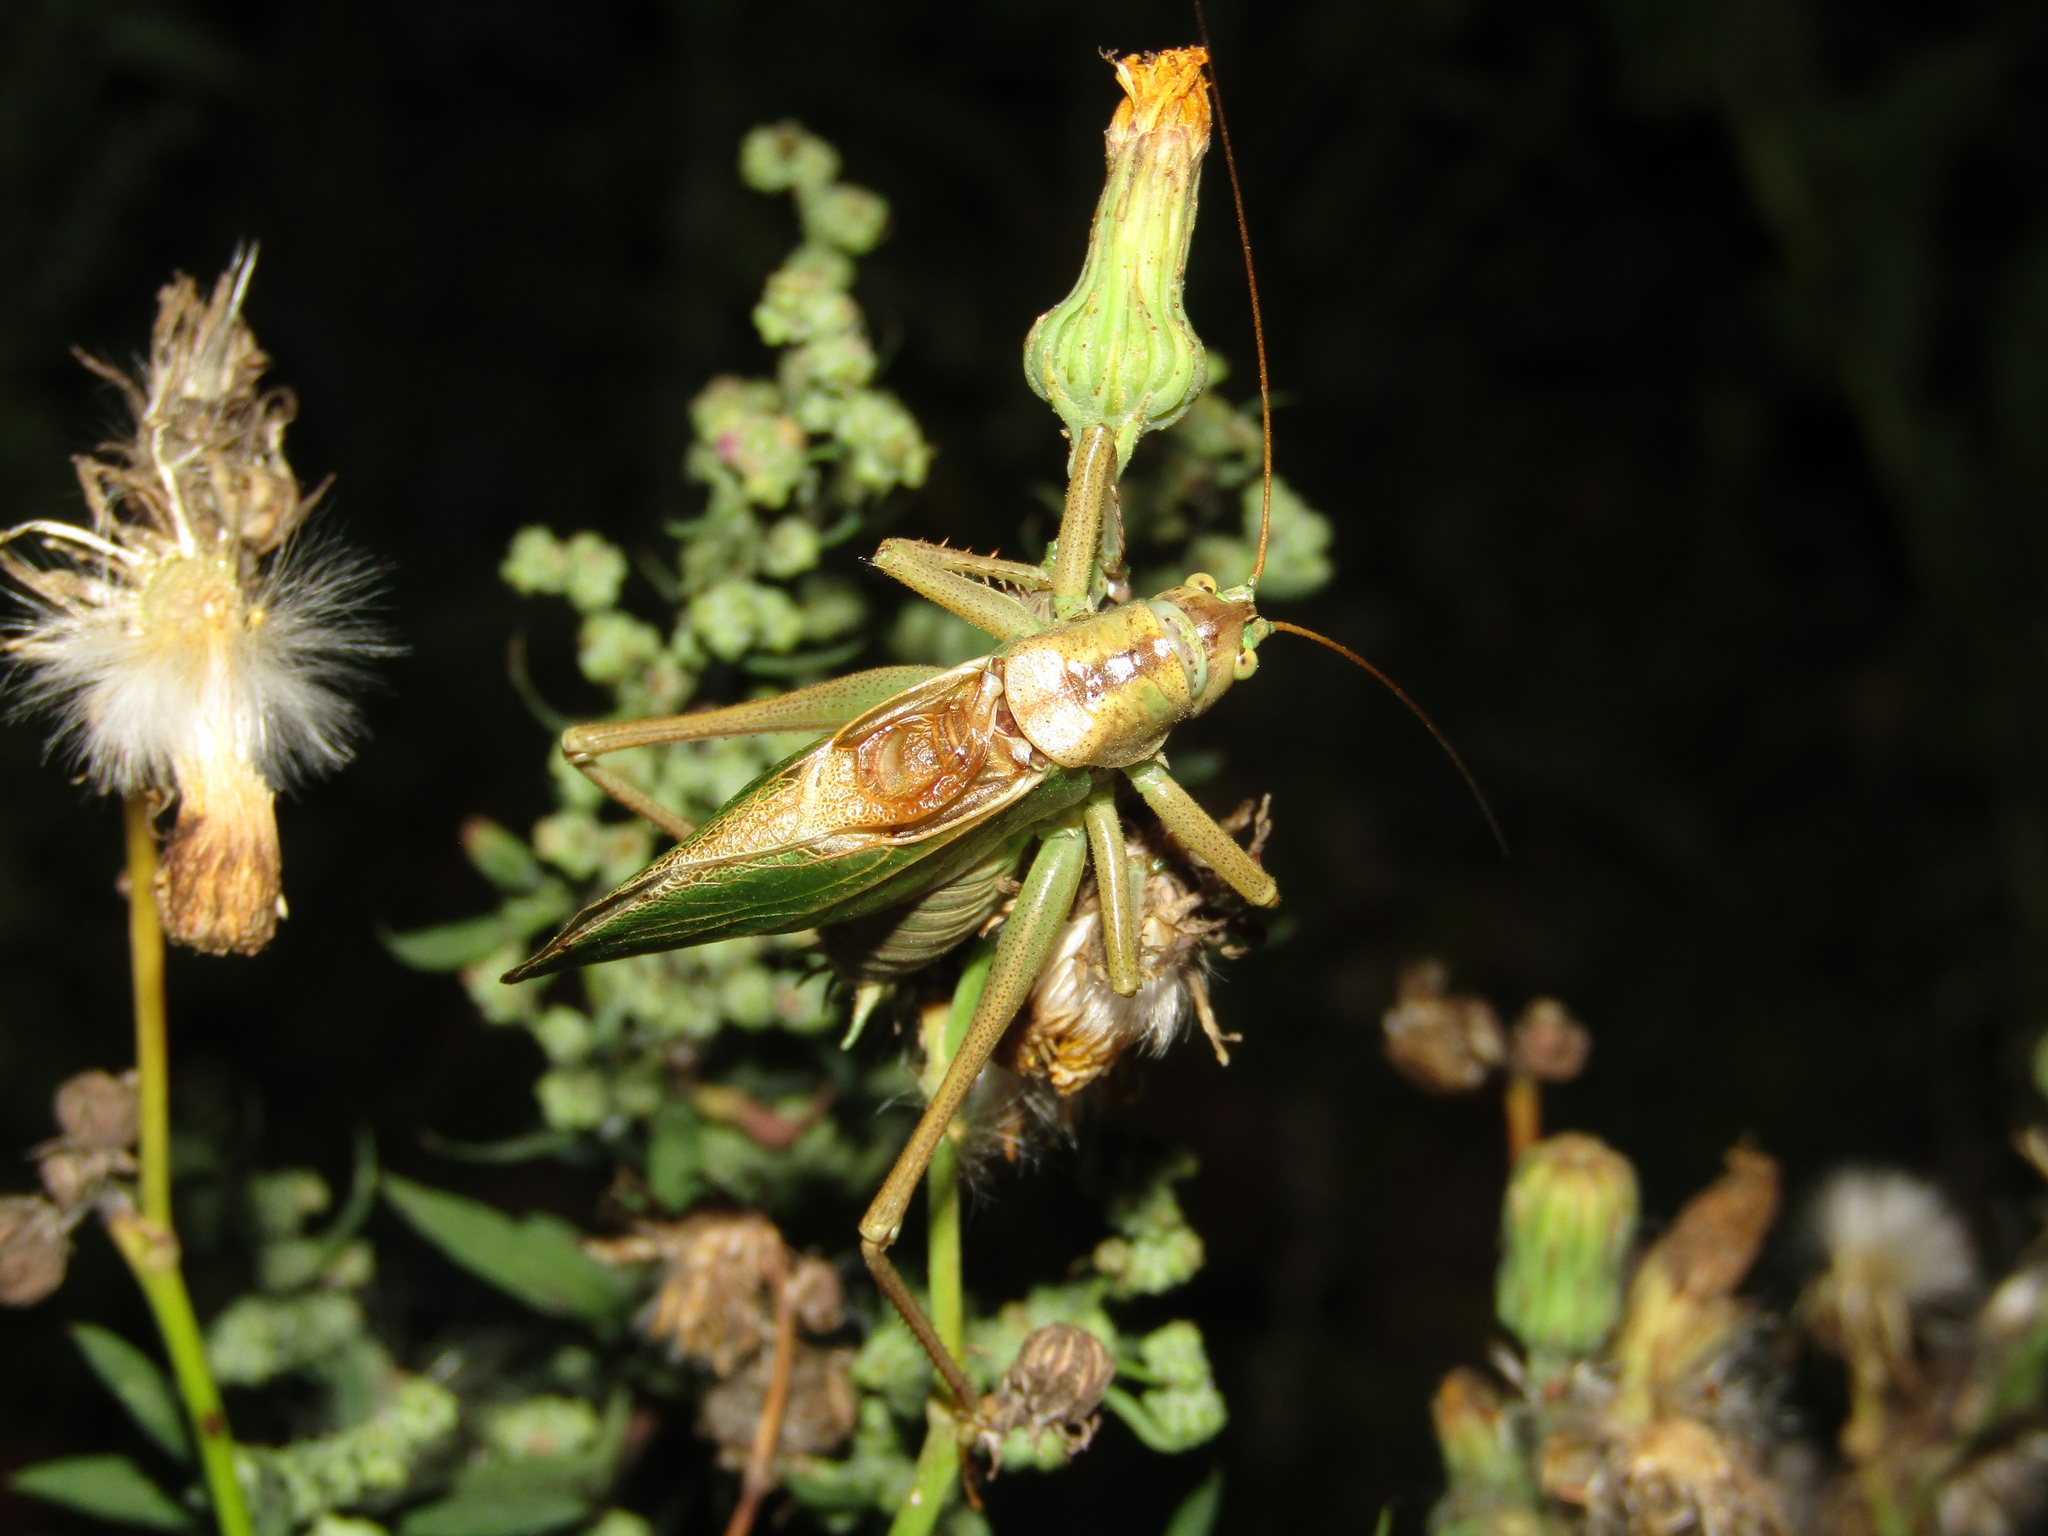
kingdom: Animalia
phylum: Arthropoda
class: Insecta
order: Orthoptera
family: Tettigoniidae
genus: Tettigonia
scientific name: Tettigonia cantans
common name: Upland green bush-cricket
